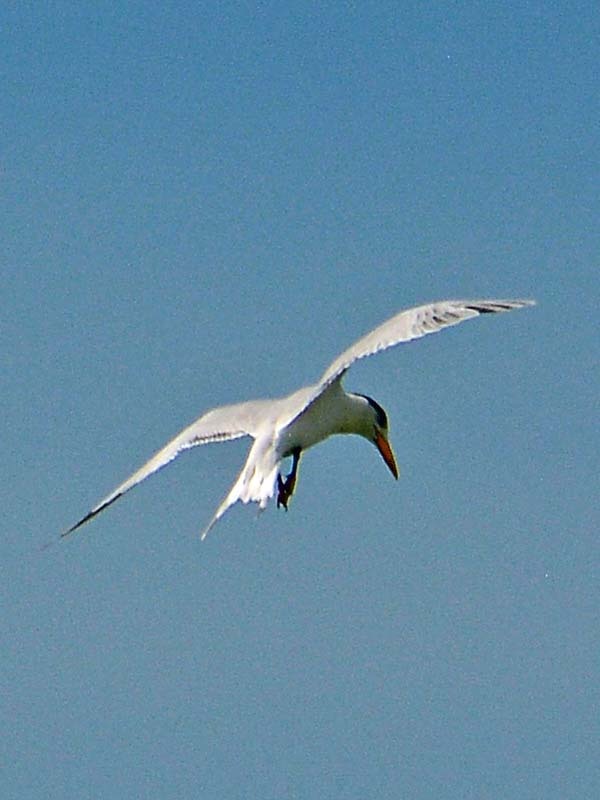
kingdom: Animalia
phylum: Chordata
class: Aves
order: Charadriiformes
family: Laridae
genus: Thalasseus
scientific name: Thalasseus maximus
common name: Royal tern
